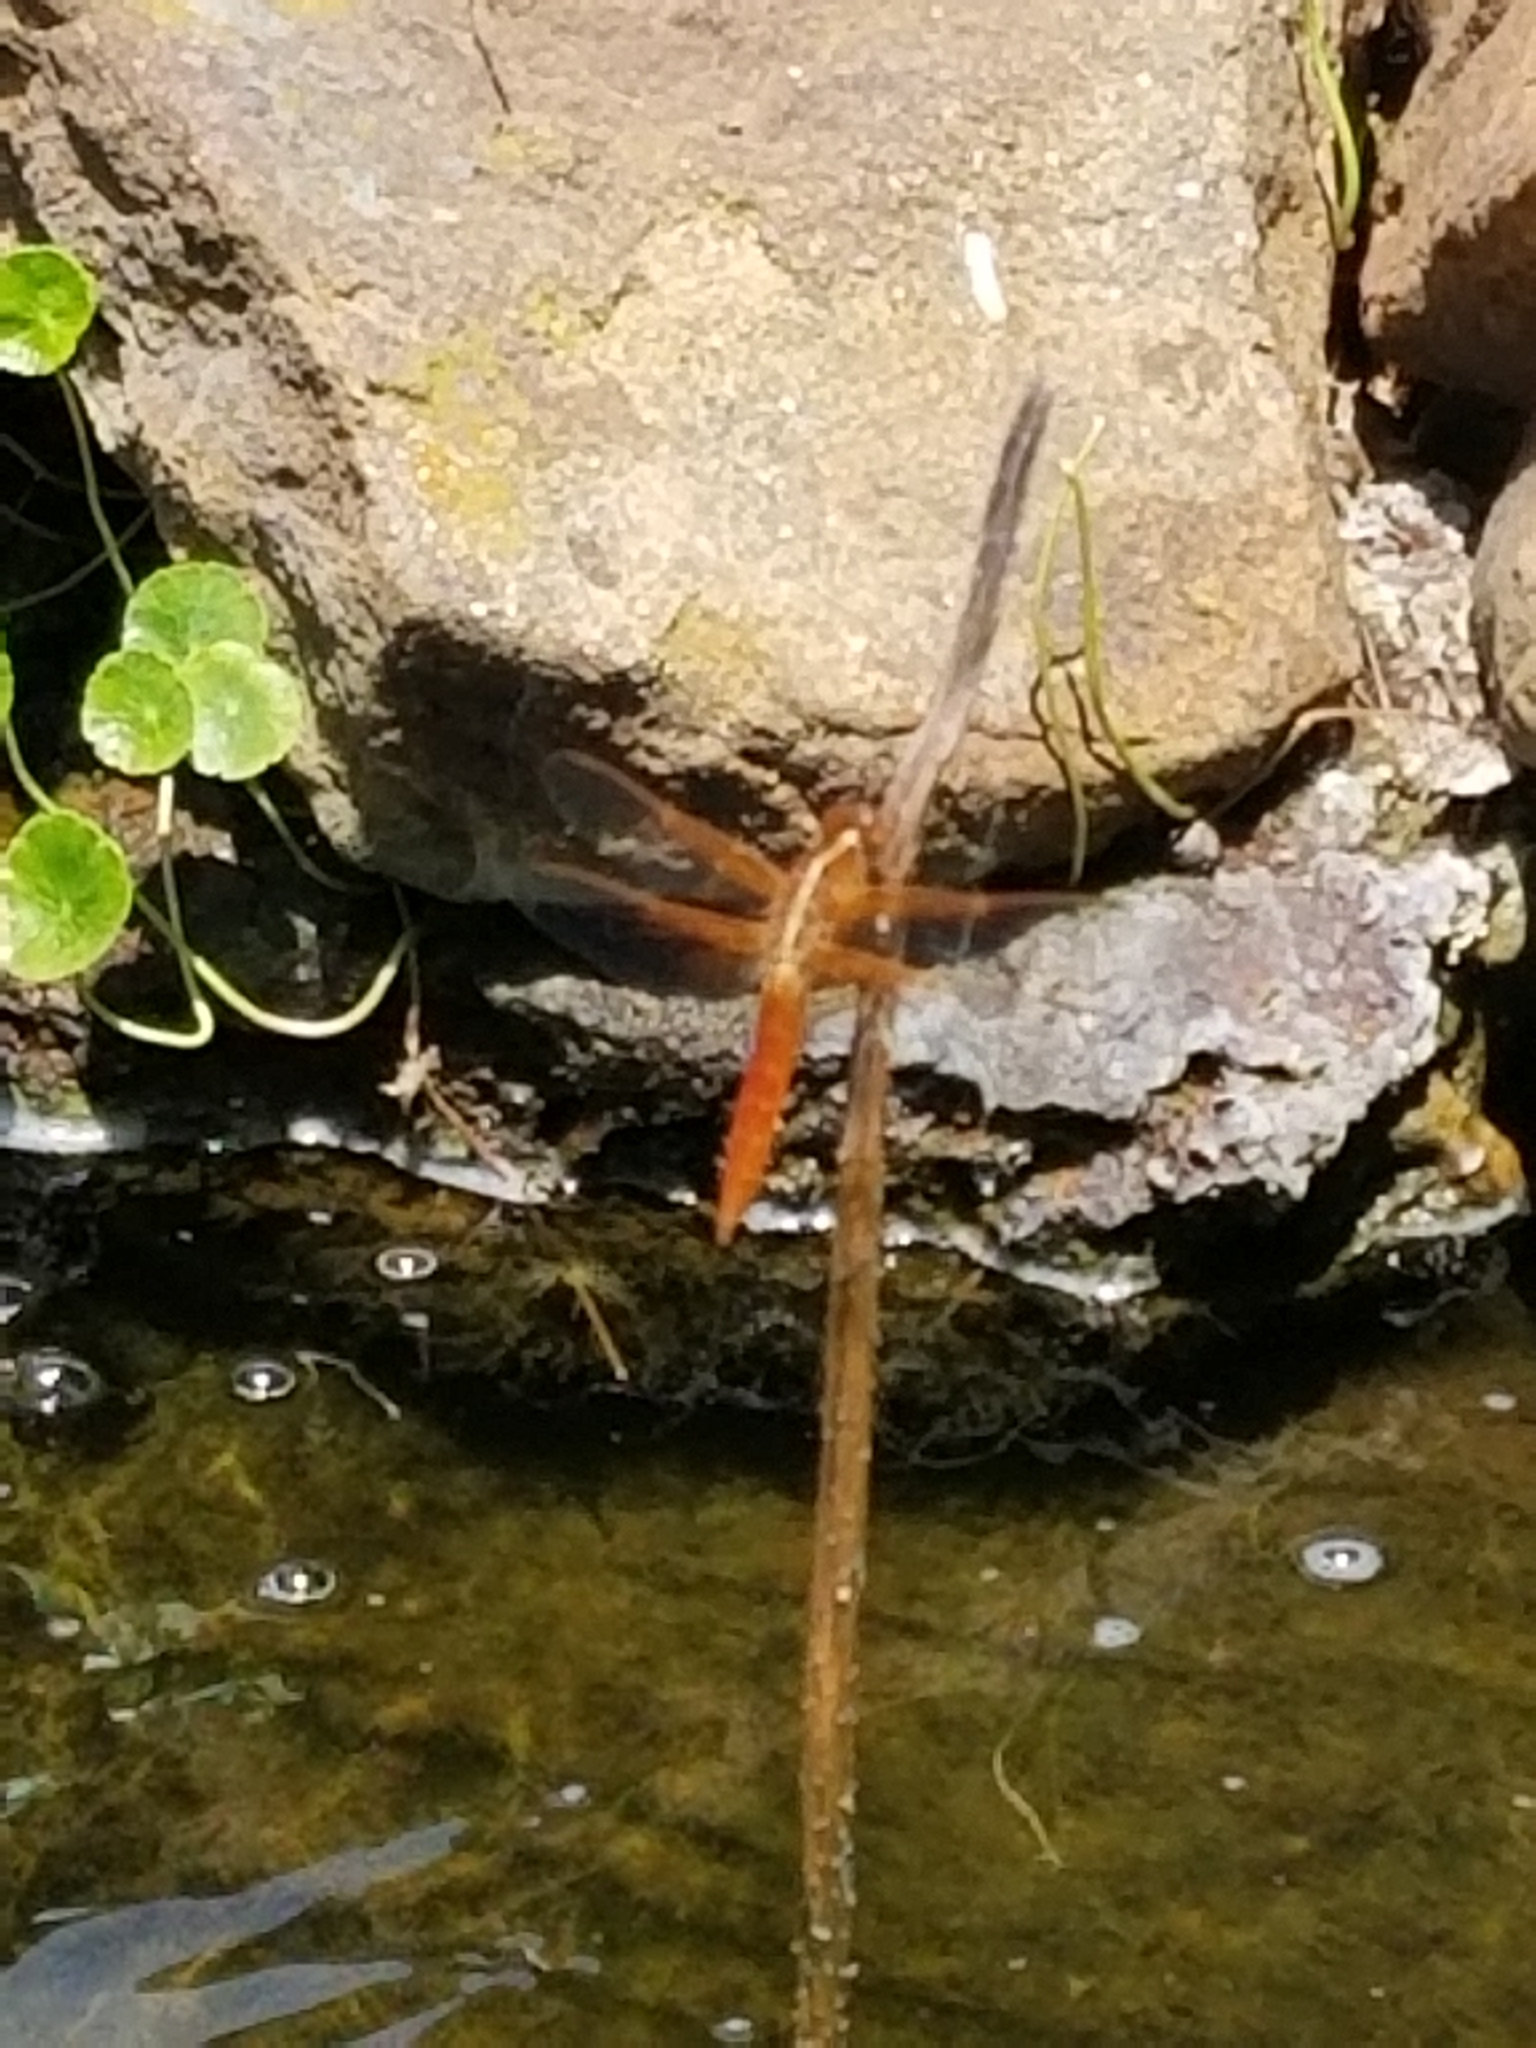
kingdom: Animalia
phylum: Arthropoda
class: Insecta
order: Odonata
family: Libellulidae
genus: Libellula
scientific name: Libellula croceipennis
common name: Neon skimmer
